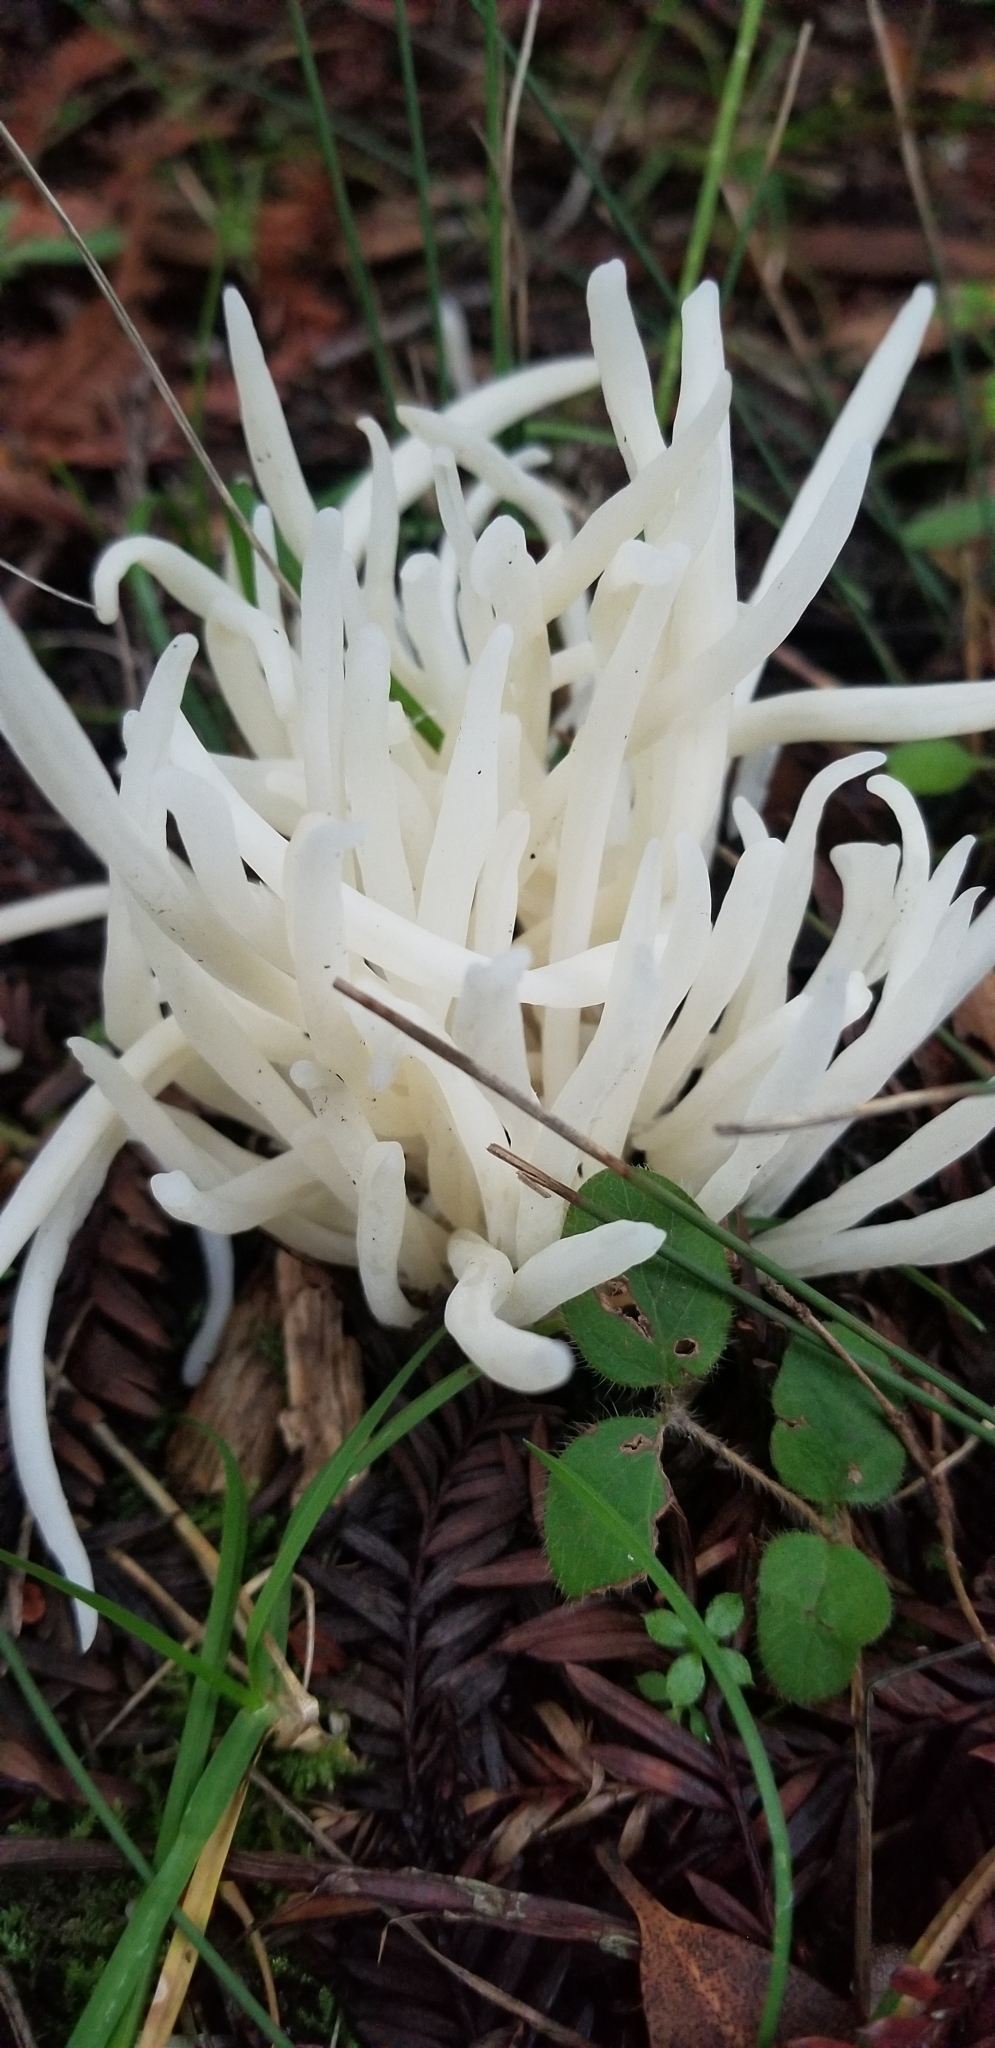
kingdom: Fungi
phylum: Basidiomycota
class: Agaricomycetes
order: Agaricales
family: Clavariaceae
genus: Clavaria
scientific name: Clavaria fragilis
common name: White spindles
